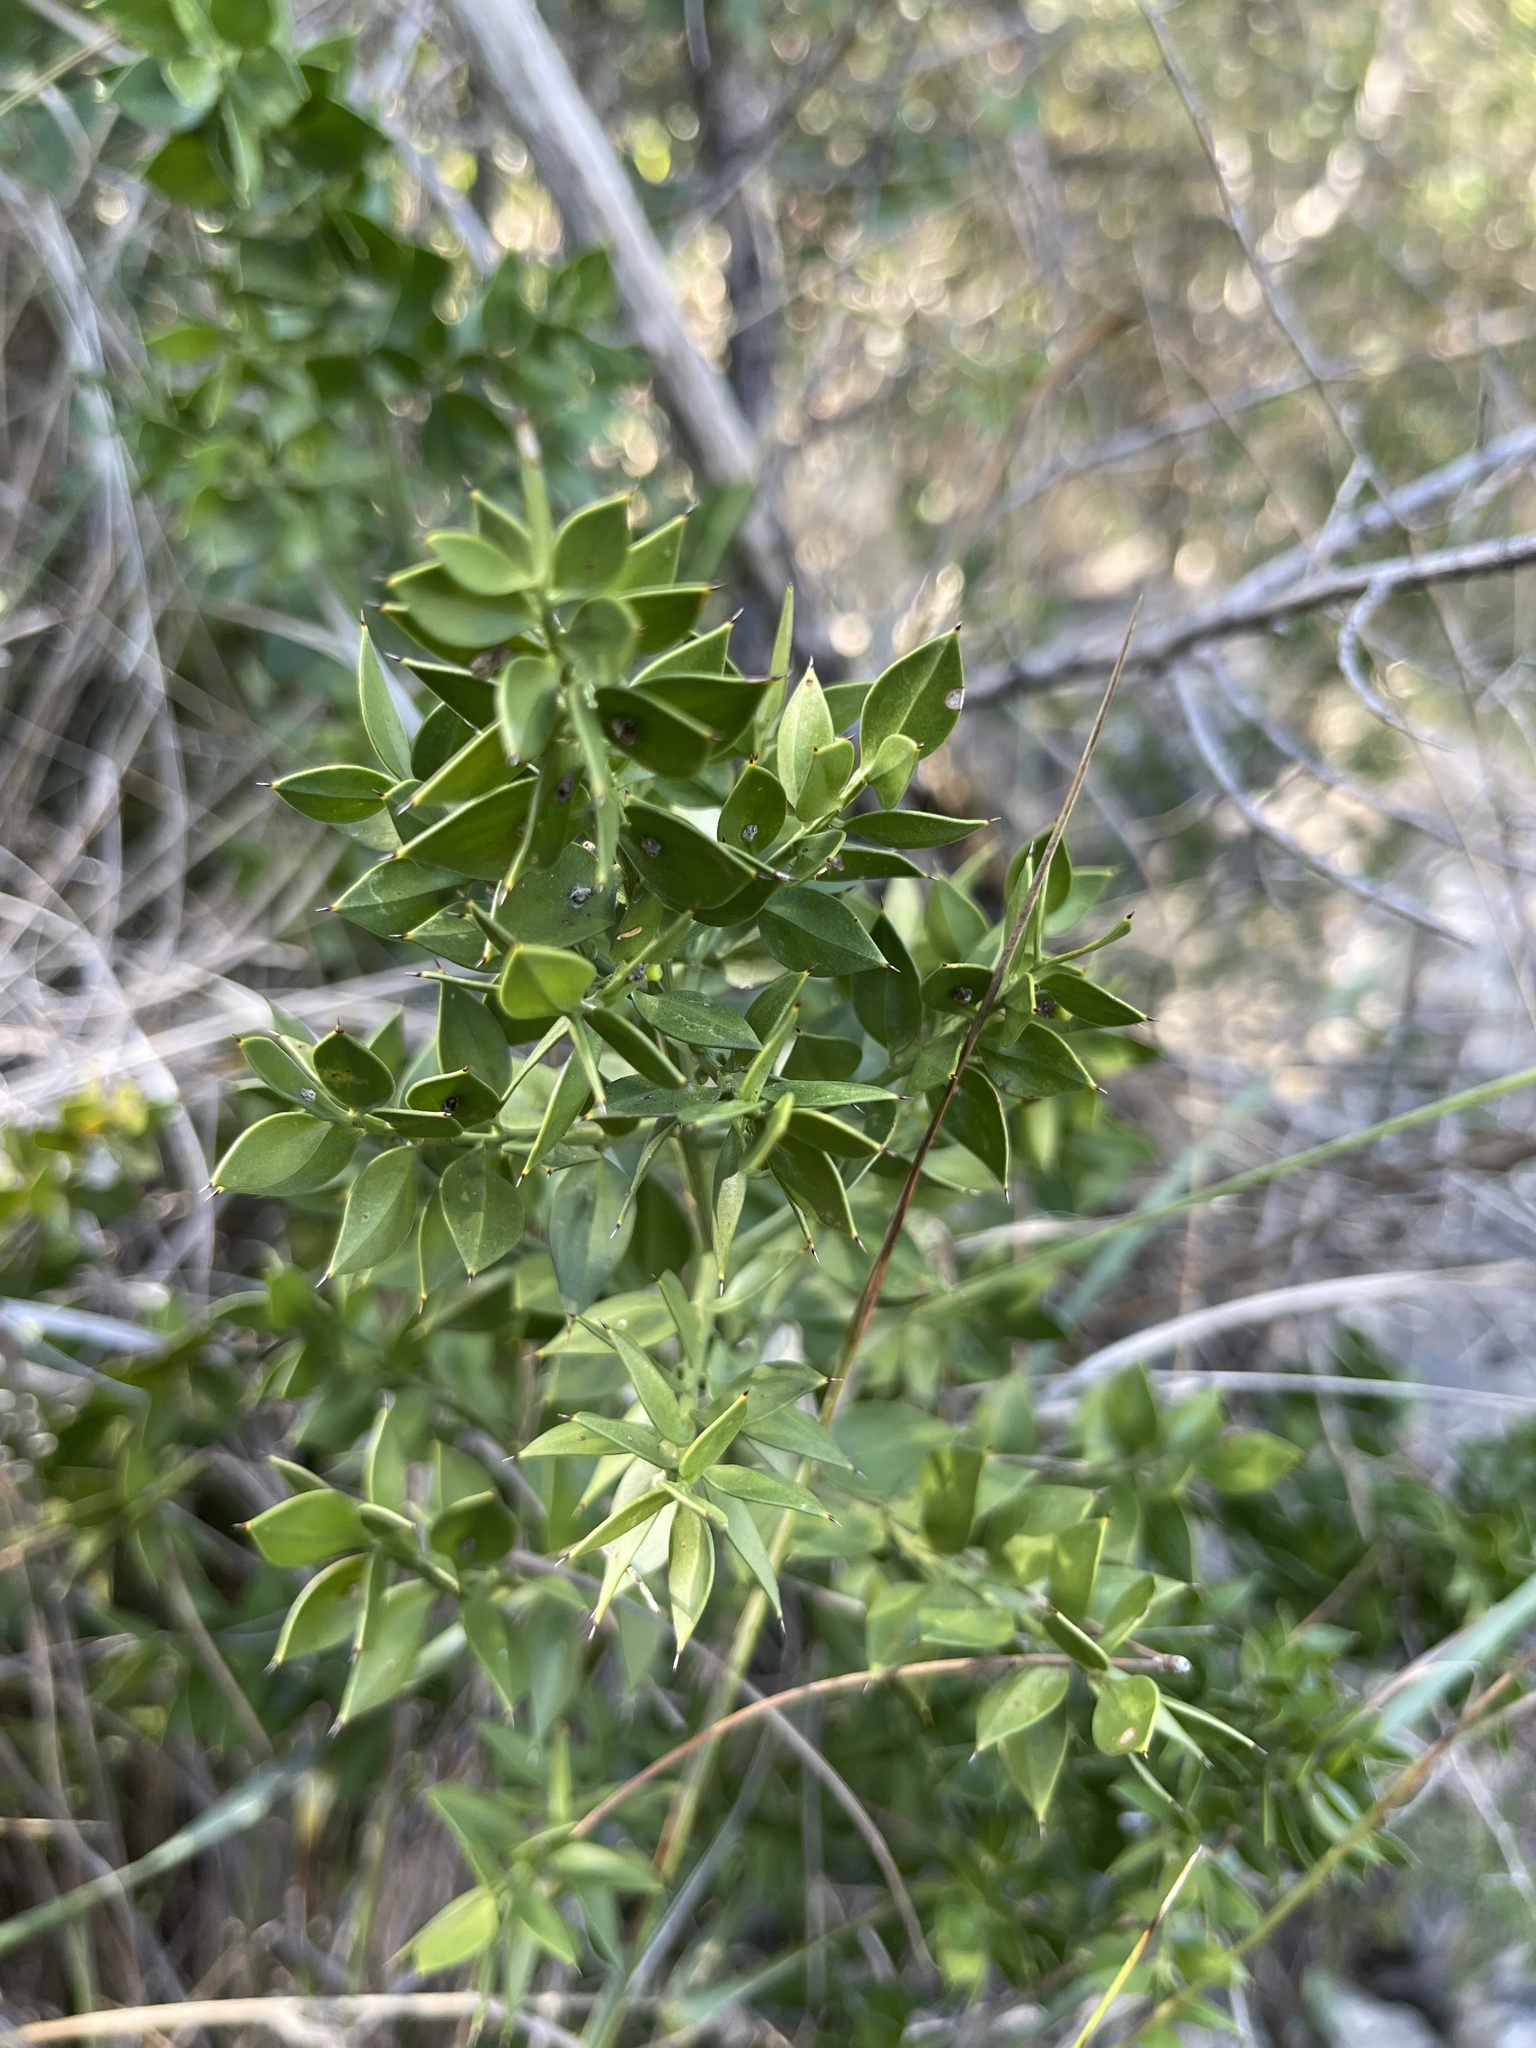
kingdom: Plantae
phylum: Tracheophyta
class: Liliopsida
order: Asparagales
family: Asparagaceae
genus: Ruscus
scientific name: Ruscus aculeatus
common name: Butcher's-broom
